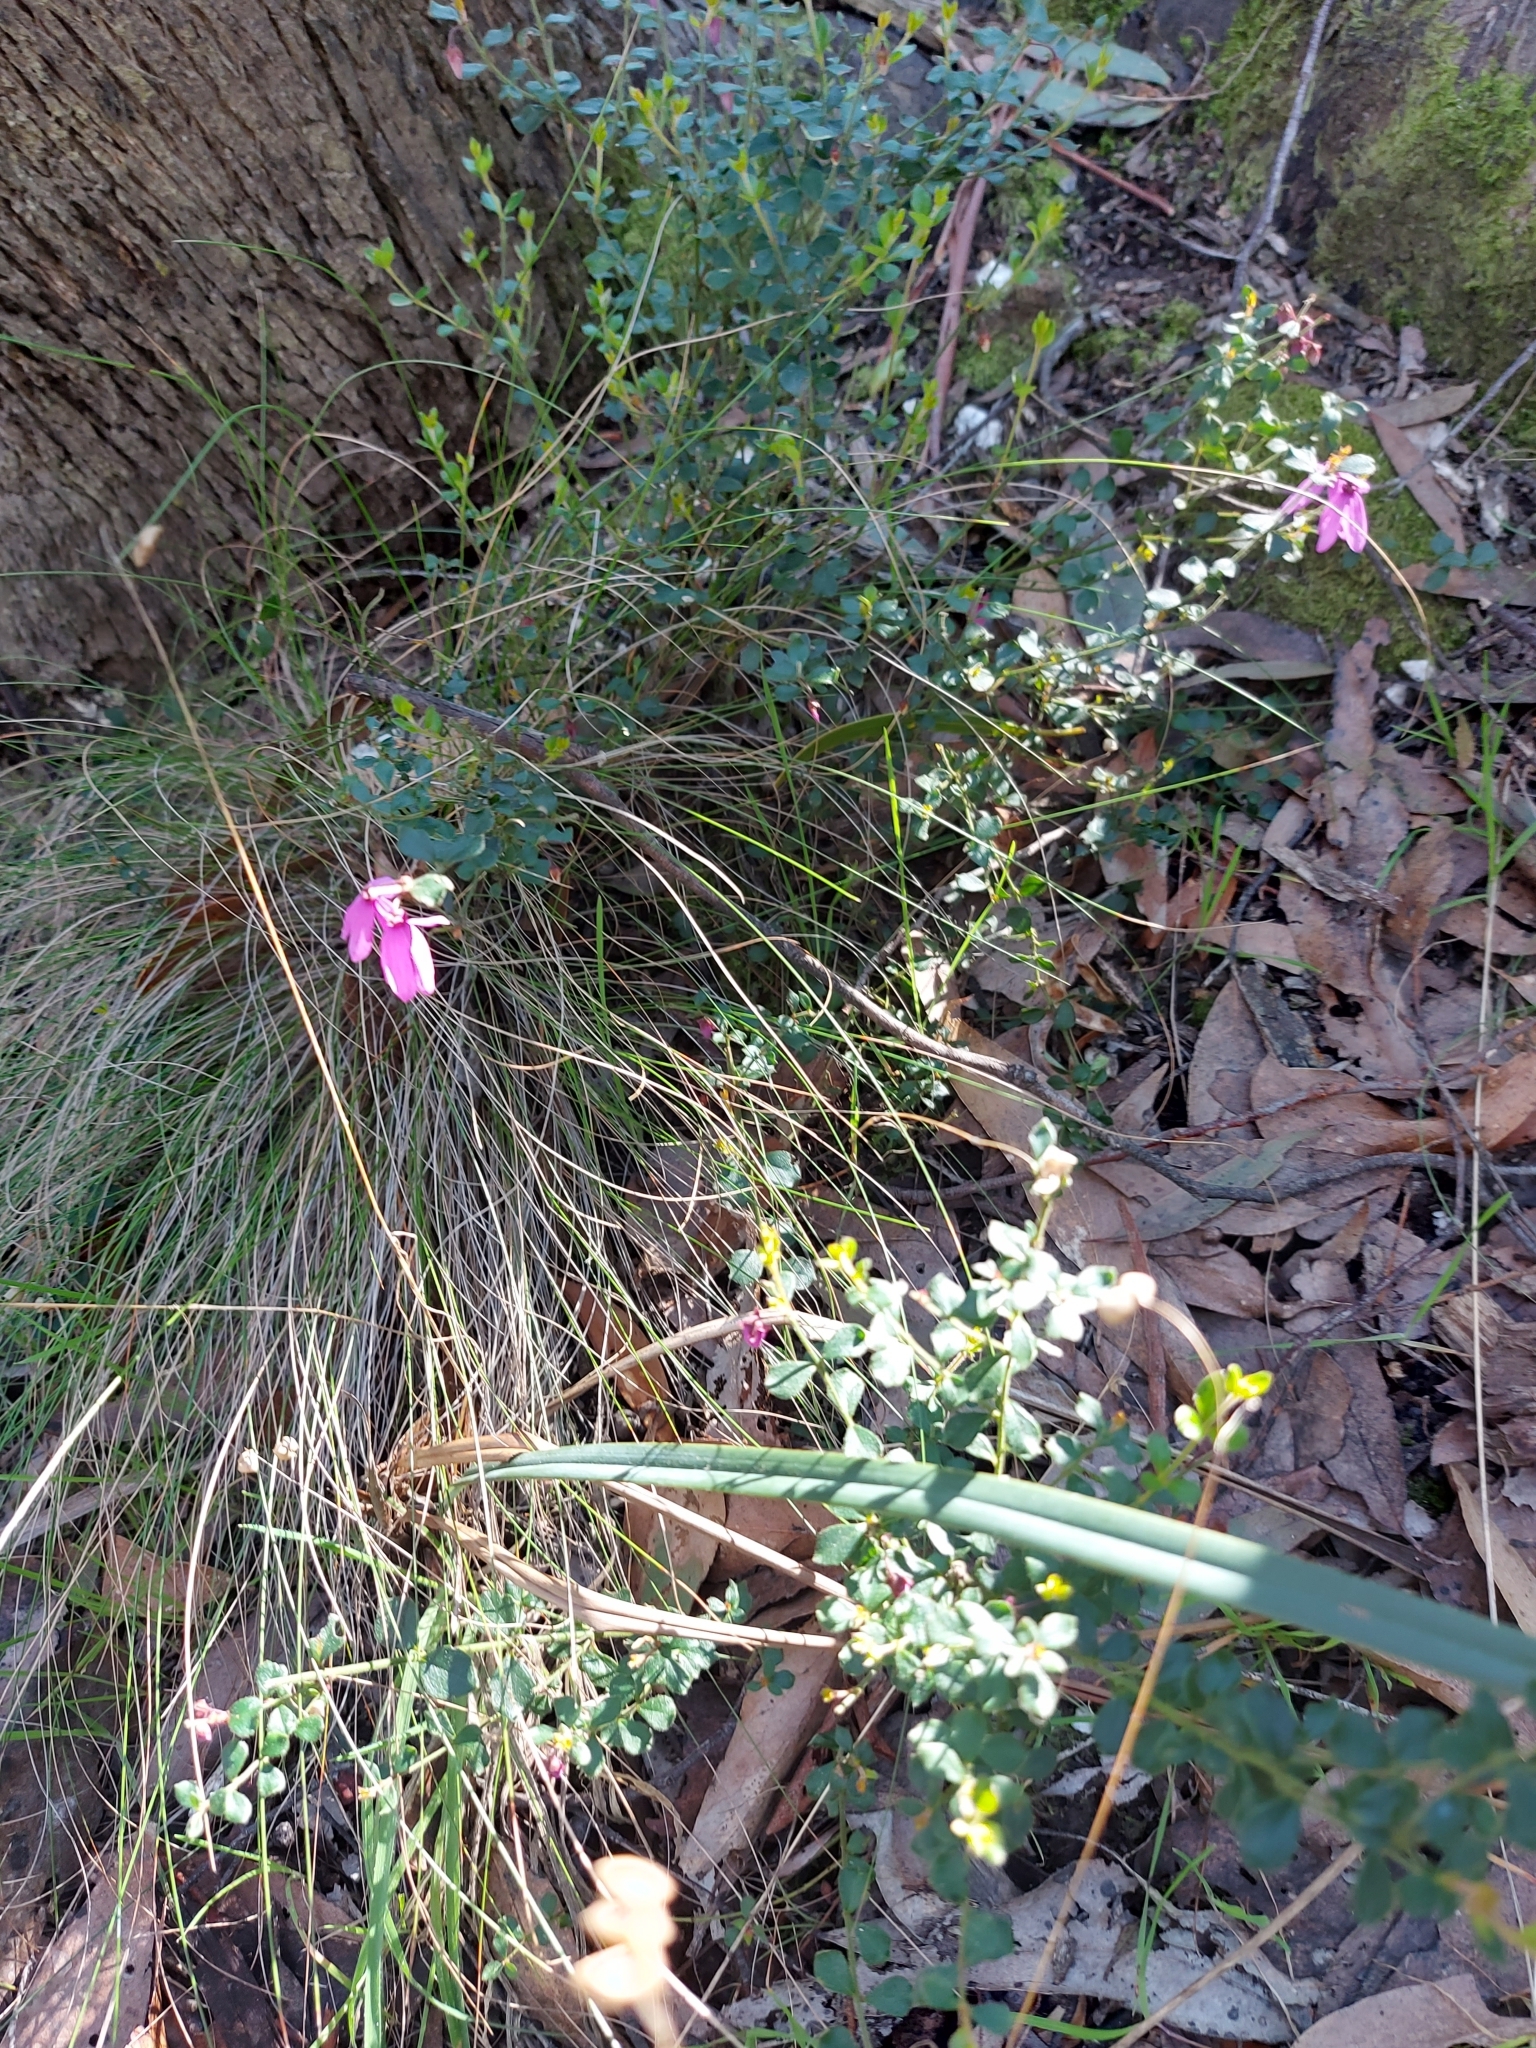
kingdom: Plantae
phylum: Tracheophyta
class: Magnoliopsida
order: Oxalidales
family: Elaeocarpaceae
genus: Tetratheca
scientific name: Tetratheca ciliata
